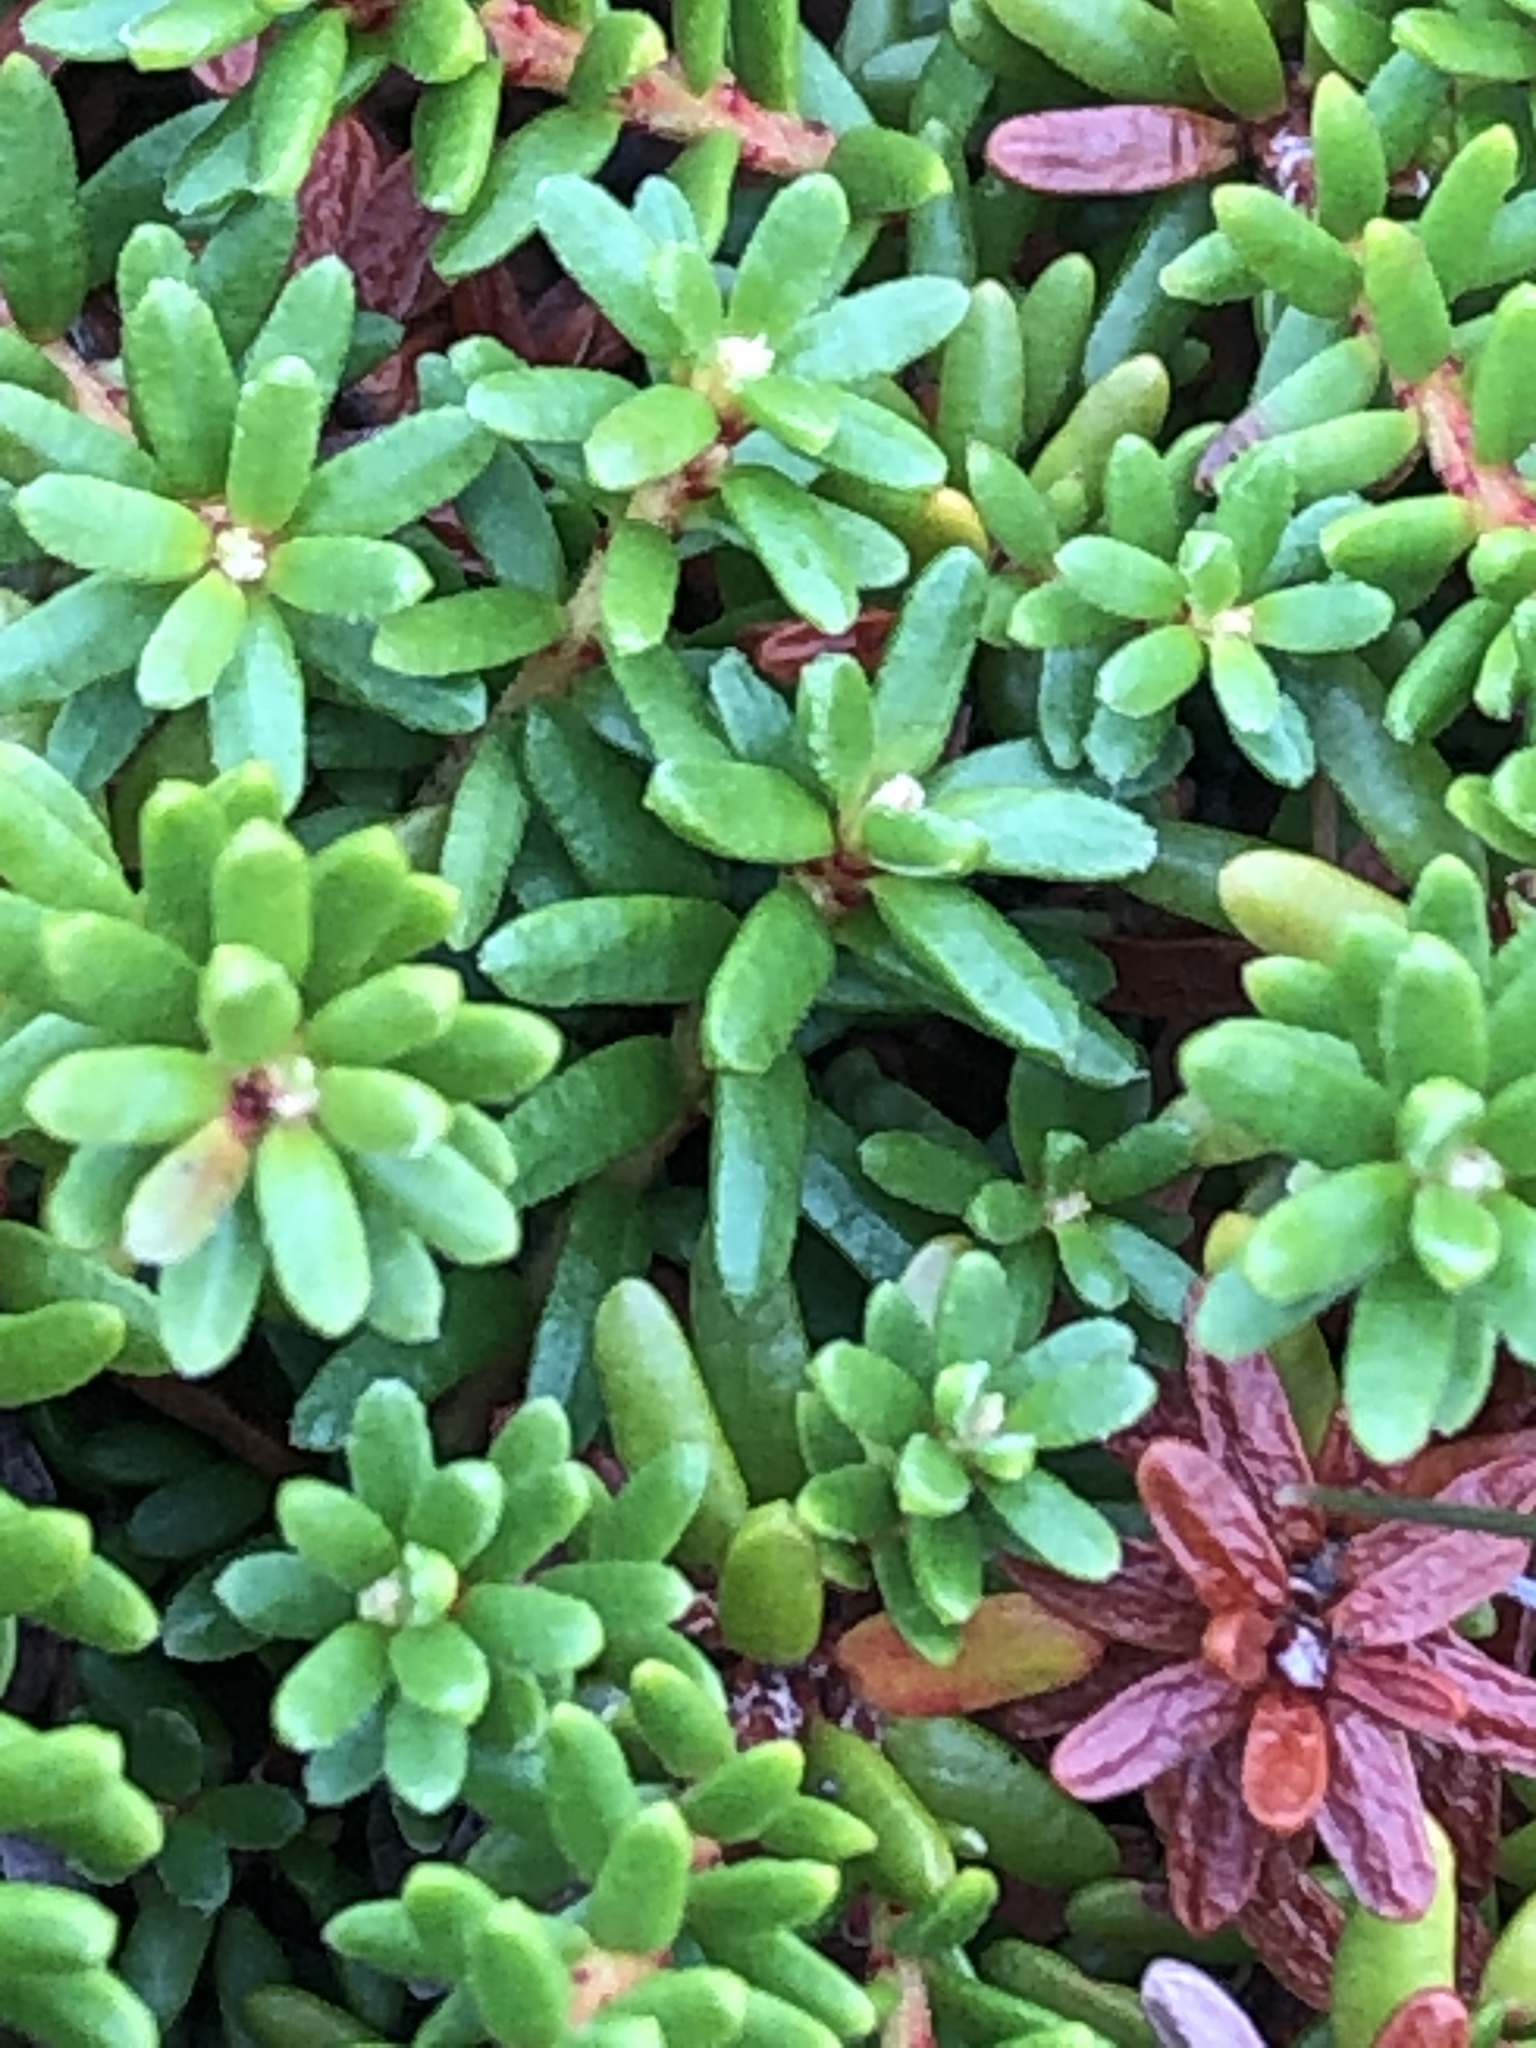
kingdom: Plantae
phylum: Tracheophyta
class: Magnoliopsida
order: Ericales
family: Ericaceae
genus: Empetrum
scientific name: Empetrum nigrum
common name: Black crowberry
